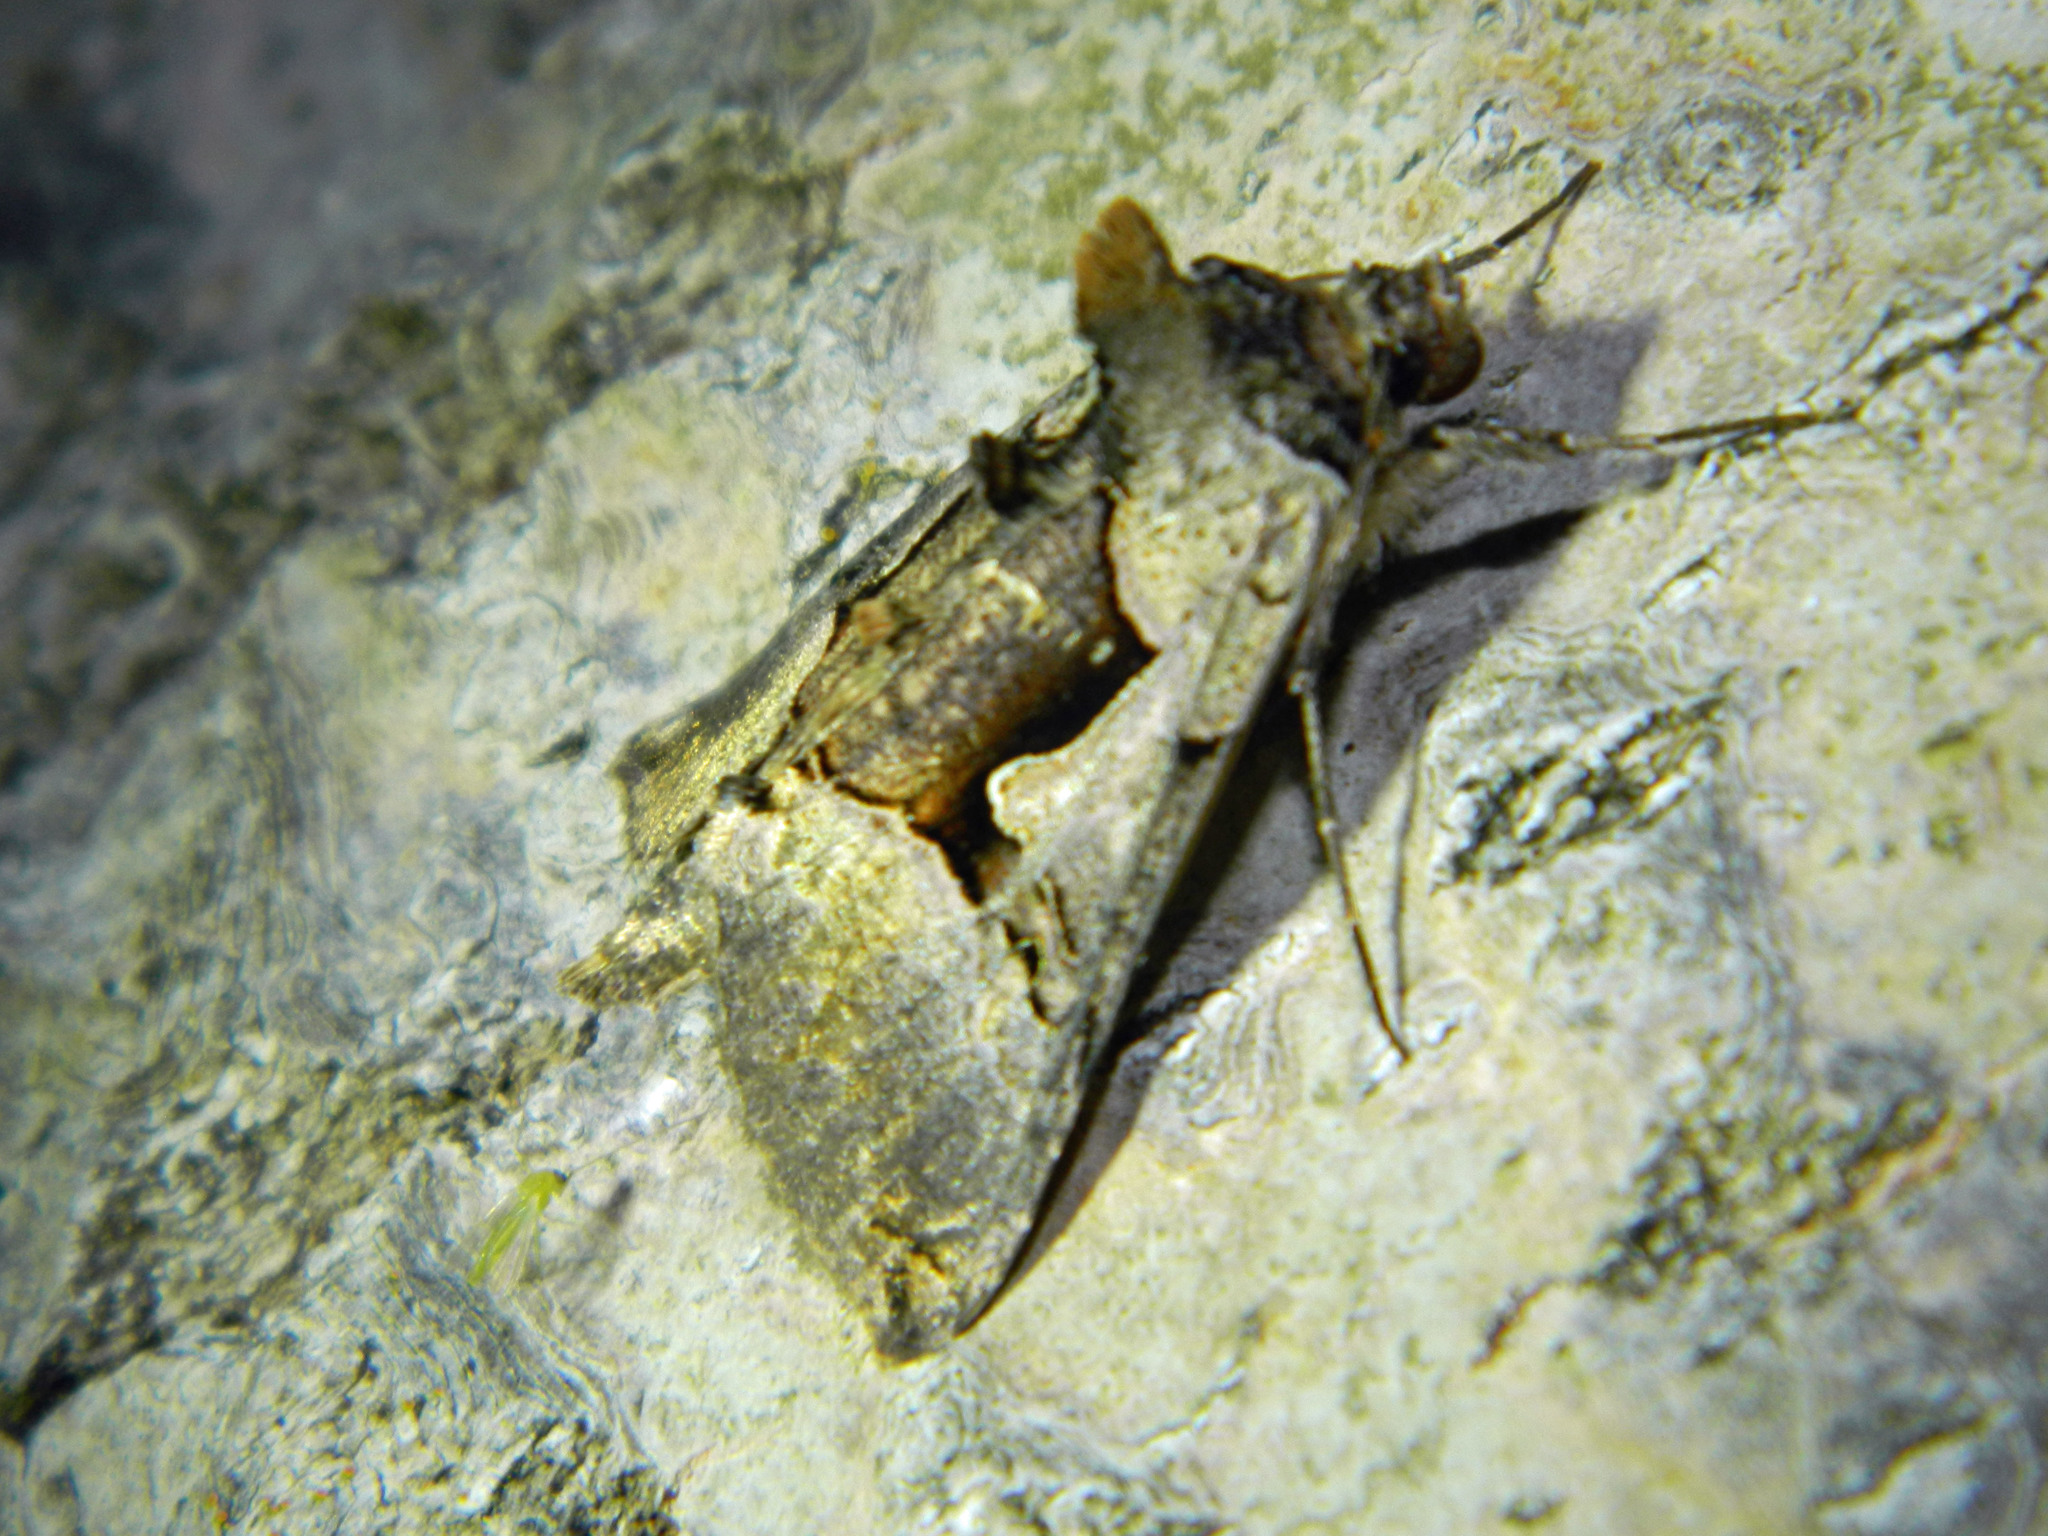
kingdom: Animalia
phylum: Arthropoda
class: Insecta
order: Lepidoptera
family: Noctuidae
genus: Autographa
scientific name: Autographa ampla
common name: Large looper moth
